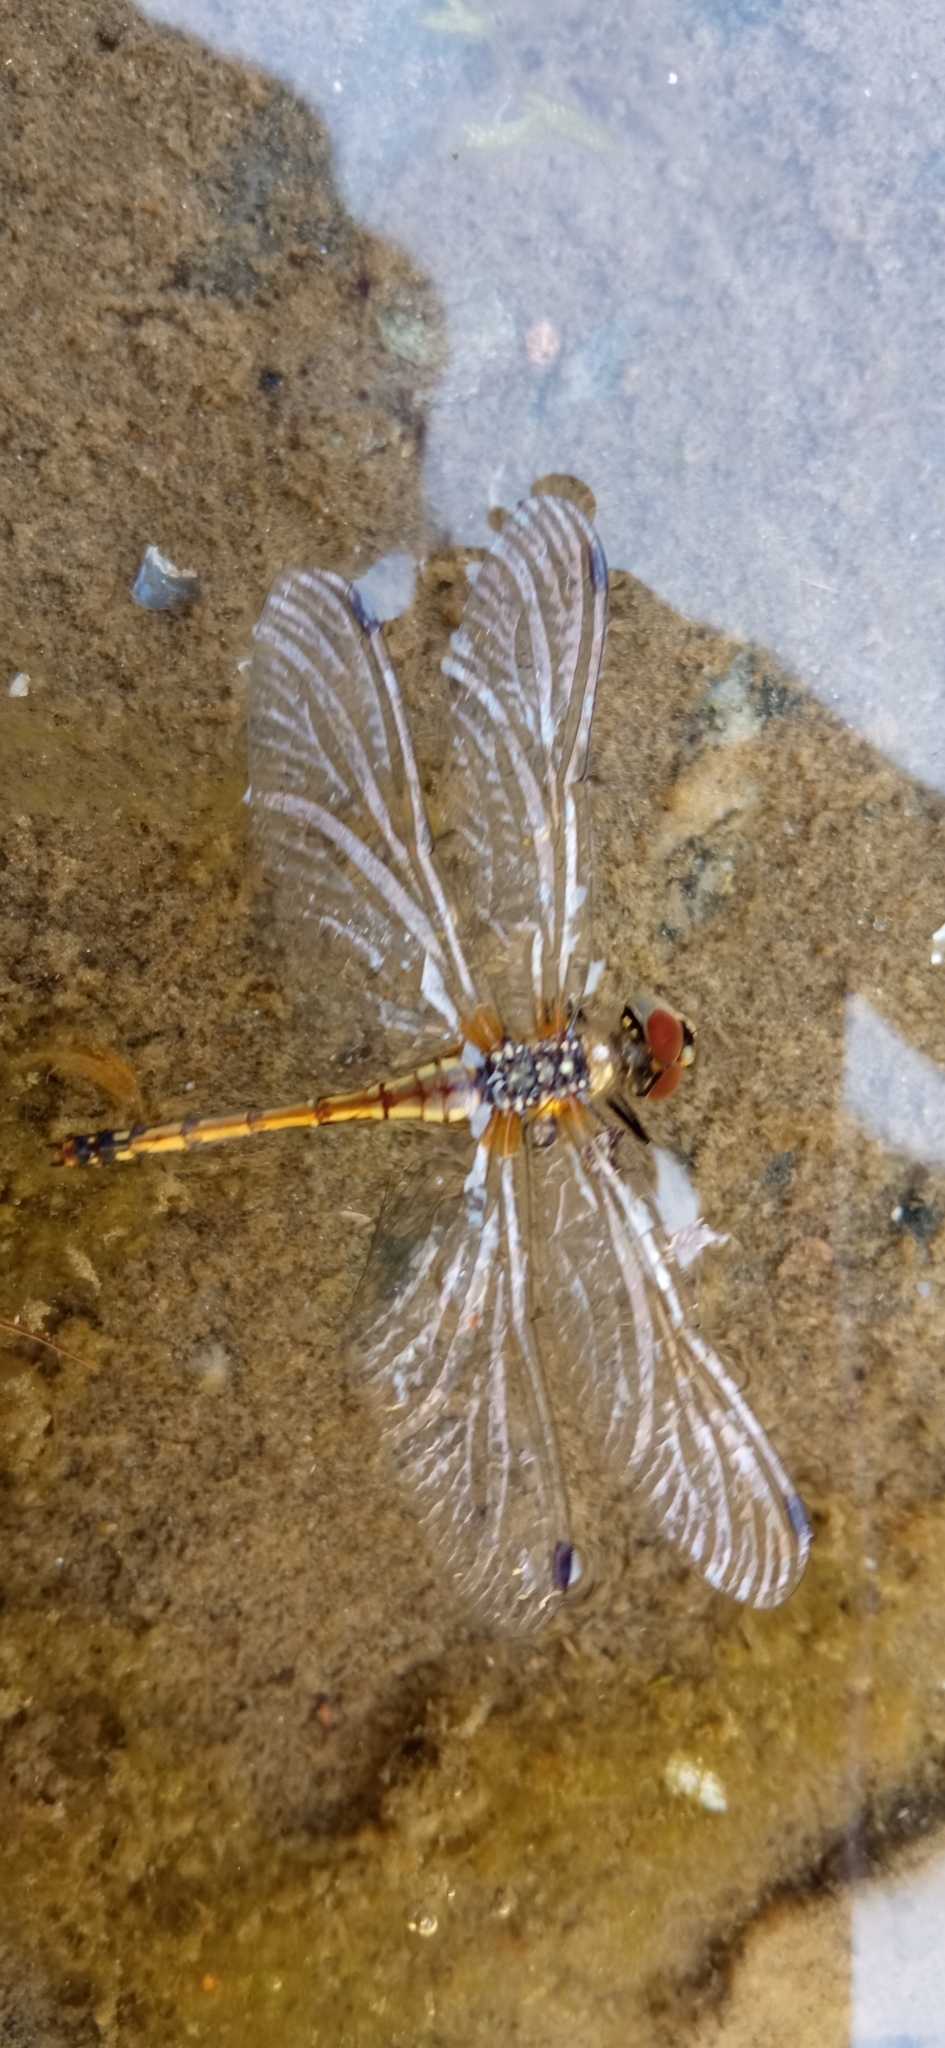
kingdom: Animalia
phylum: Arthropoda
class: Insecta
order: Odonata
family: Libellulidae
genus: Sympetrum
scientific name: Sympetrum danae
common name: Black darter
